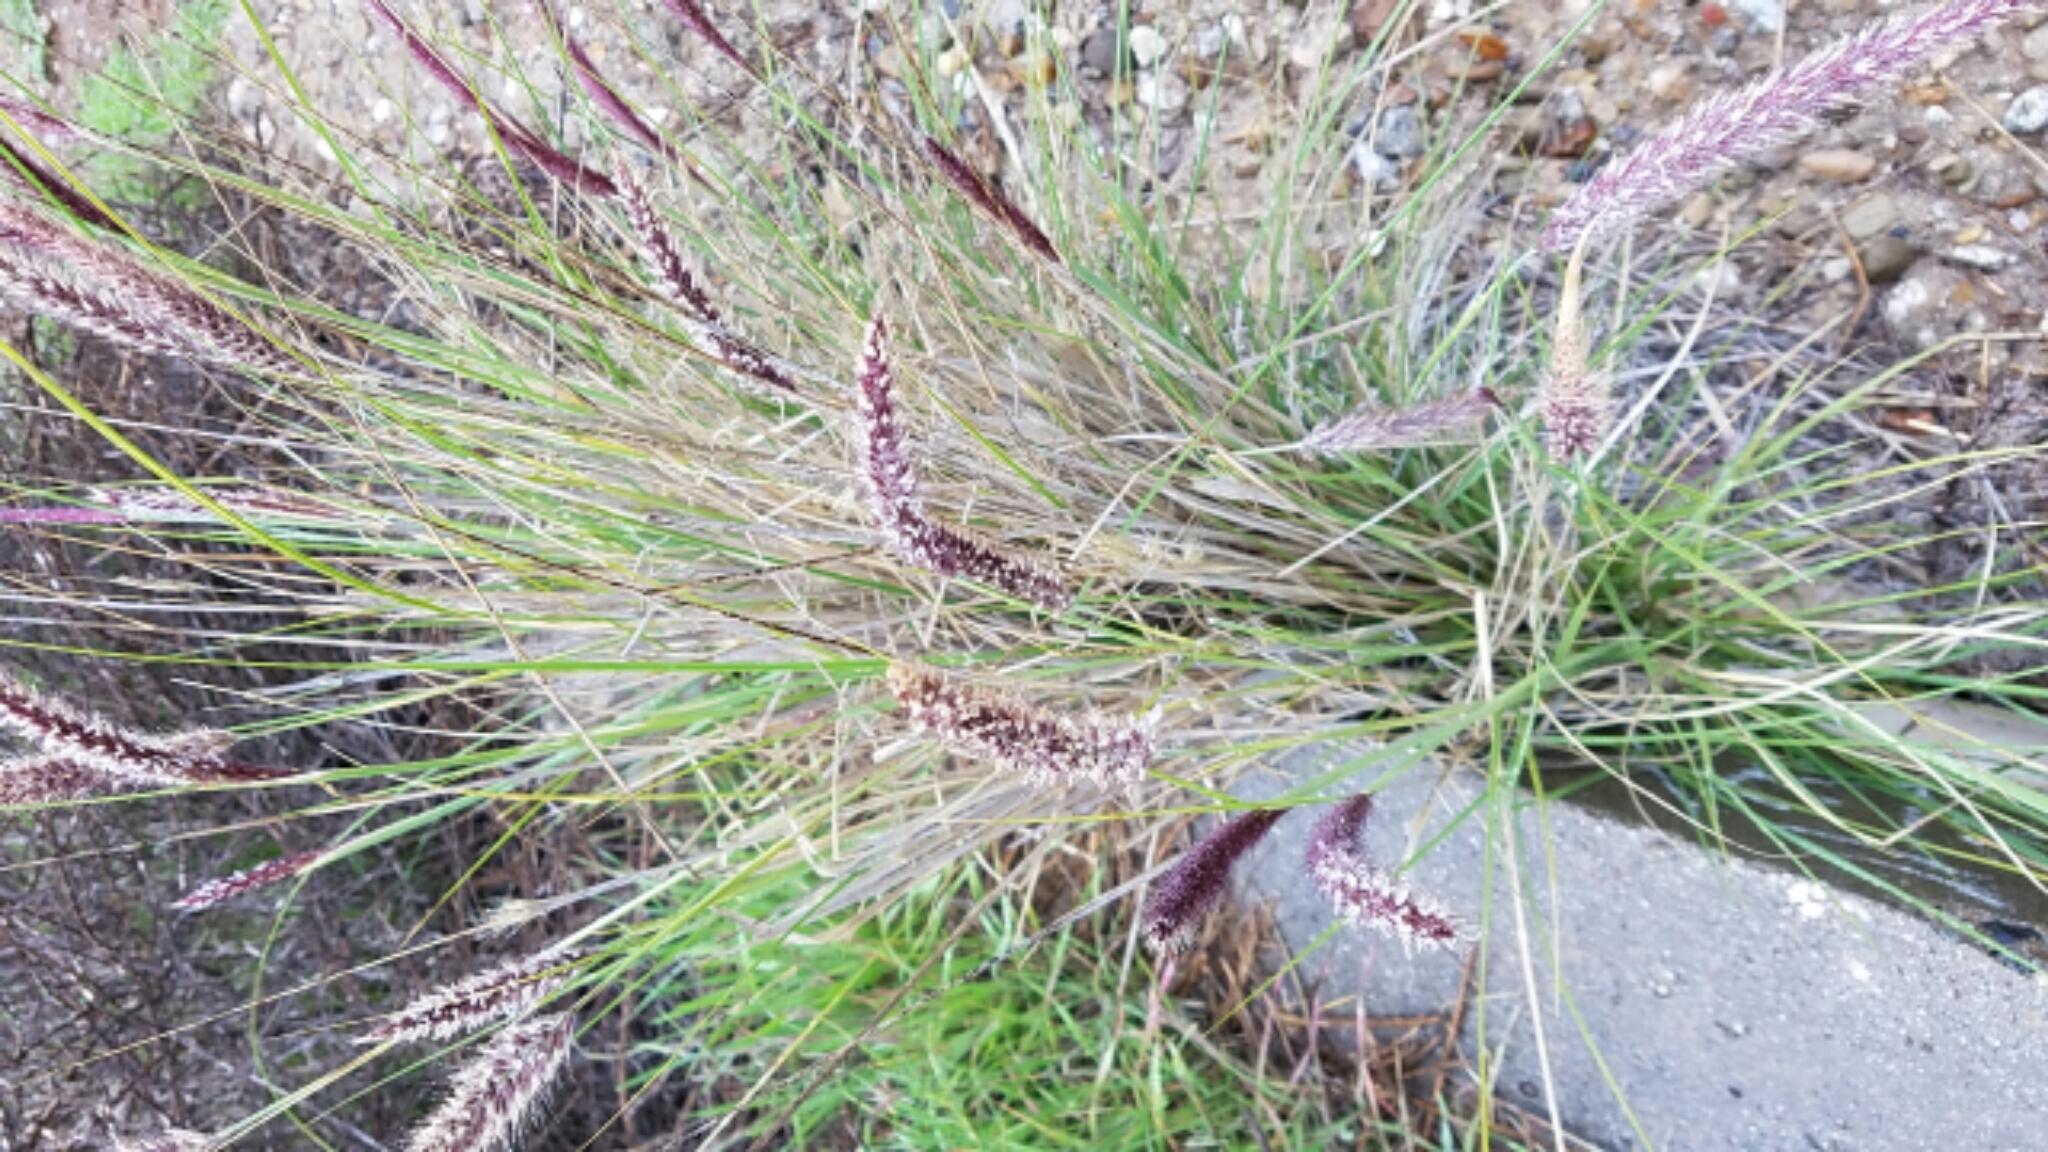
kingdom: Plantae
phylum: Tracheophyta
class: Liliopsida
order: Poales
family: Poaceae
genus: Cenchrus
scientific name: Cenchrus setaceus
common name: Crimson fountaingrass
